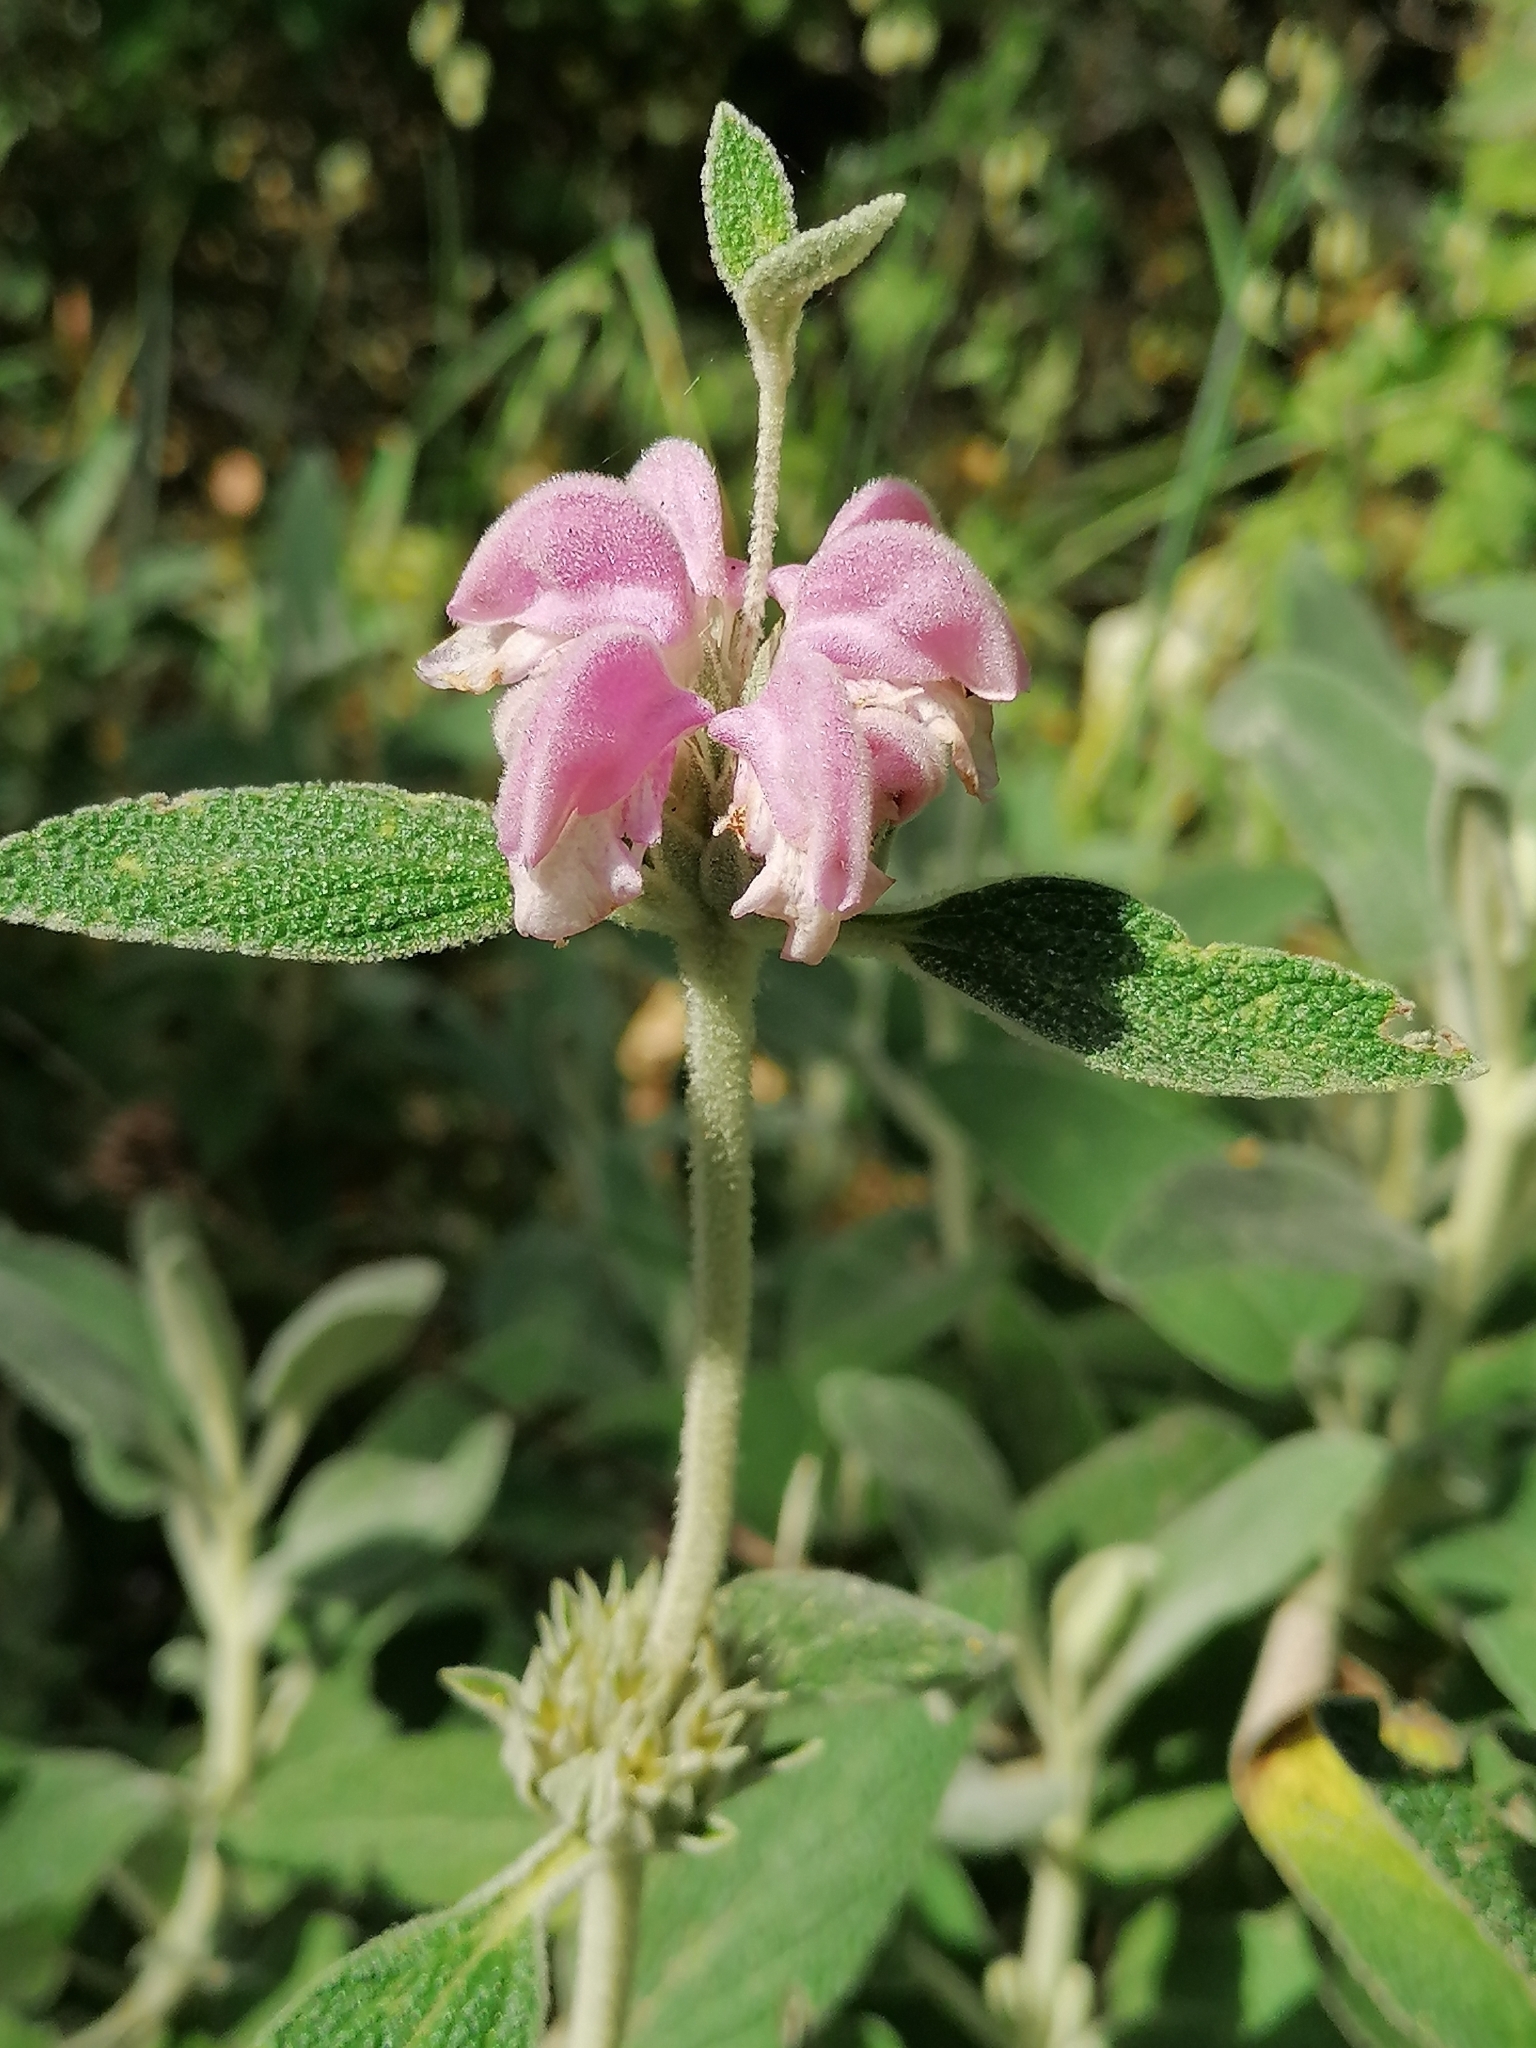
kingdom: Plantae
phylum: Tracheophyta
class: Magnoliopsida
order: Lamiales
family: Lamiaceae
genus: Phlomis
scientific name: Phlomis purpurea
